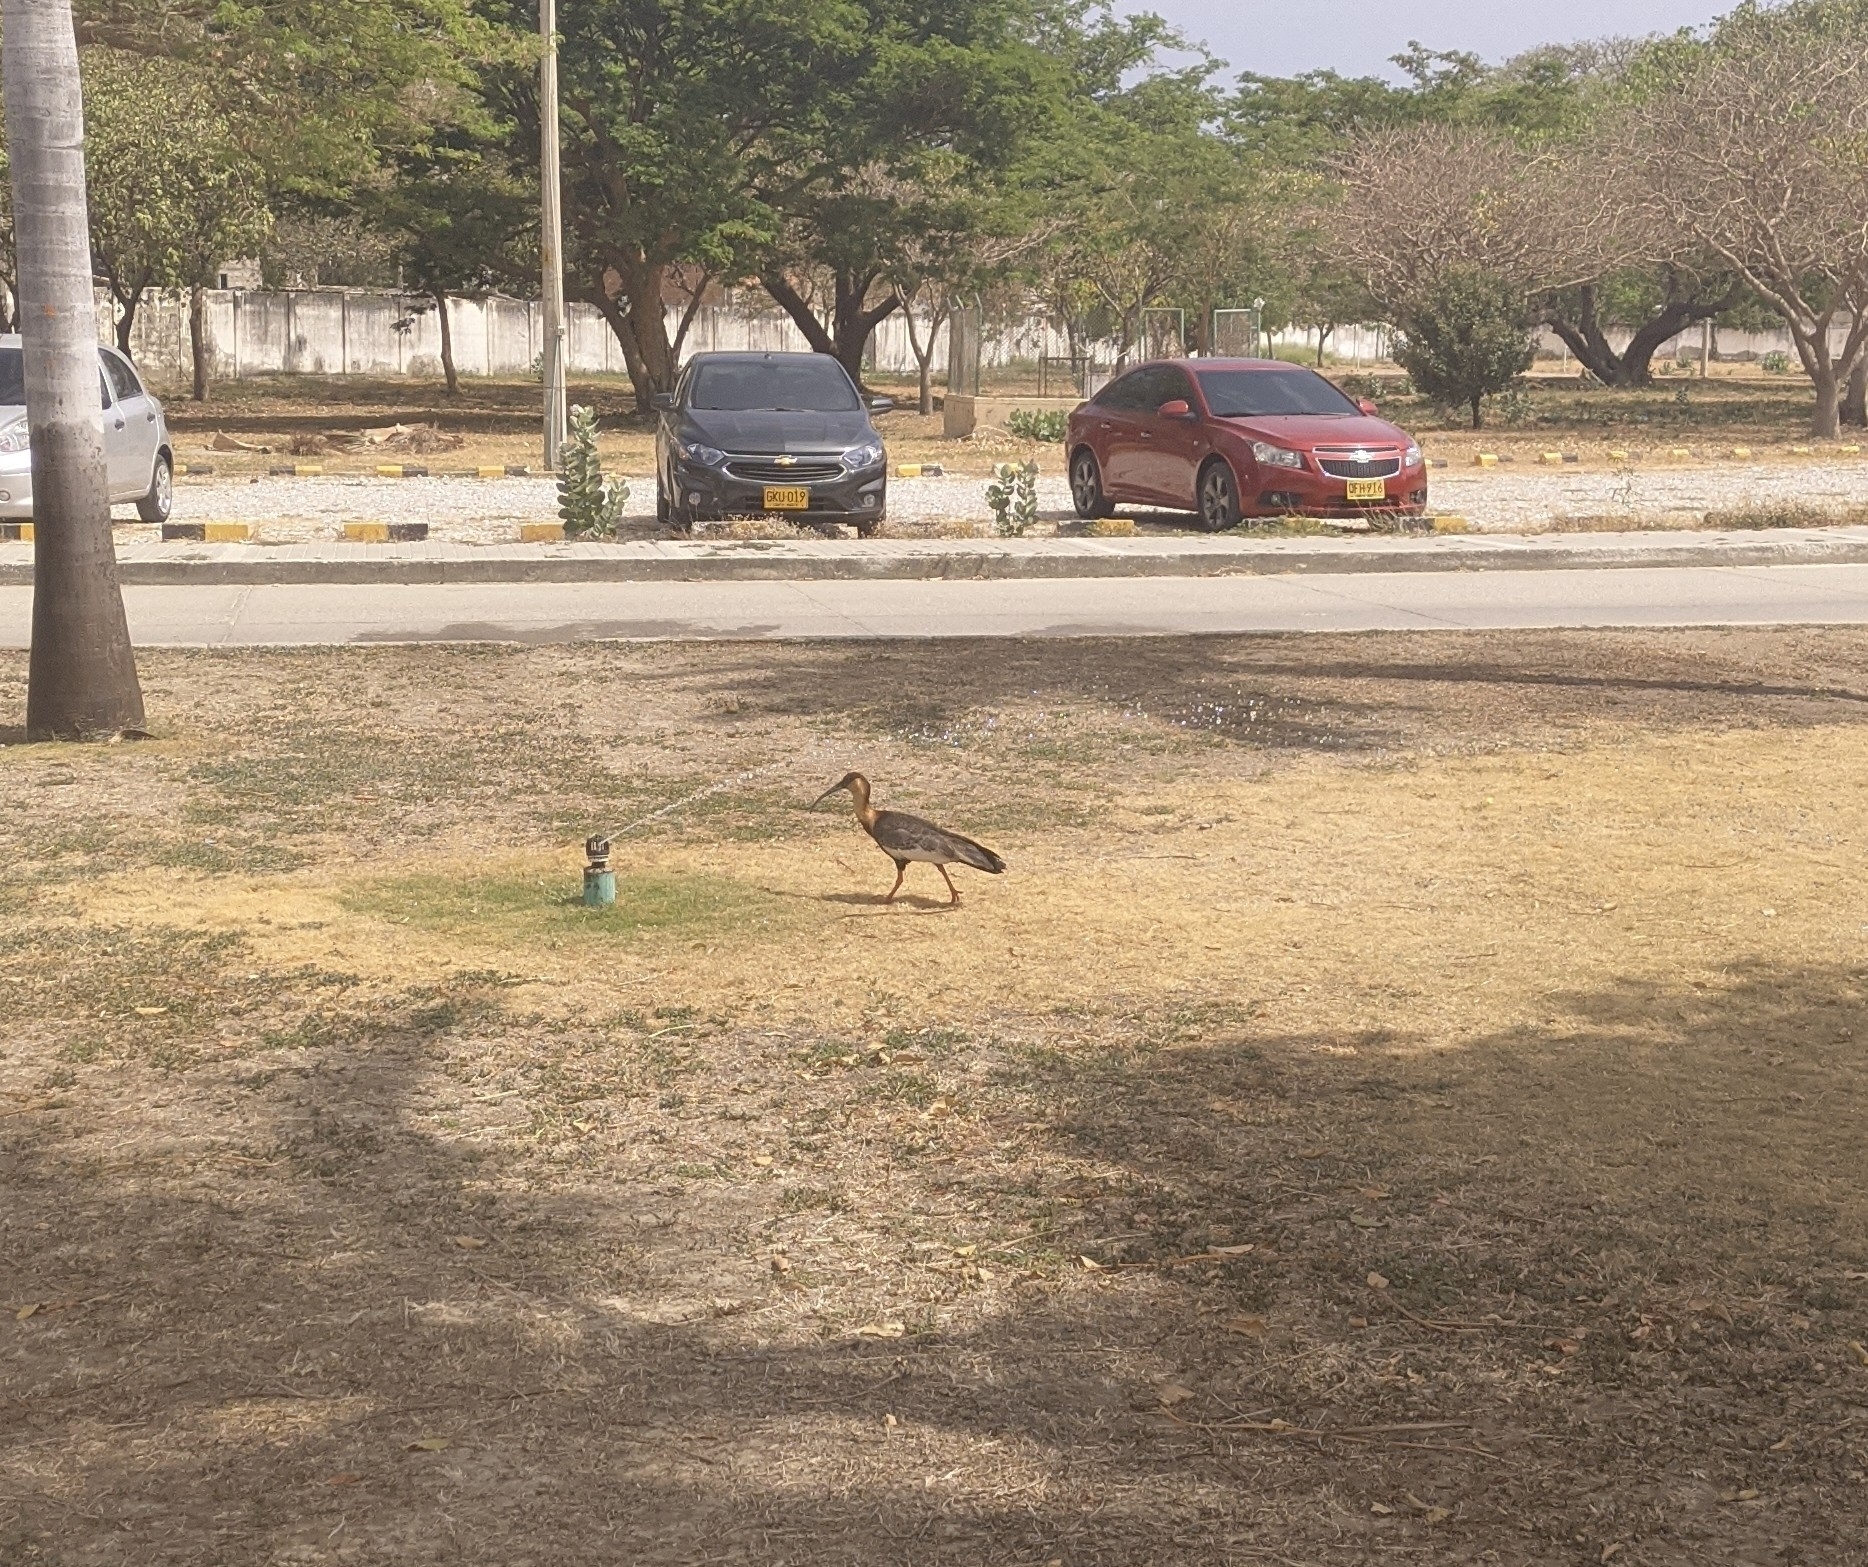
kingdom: Animalia
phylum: Chordata
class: Aves
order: Pelecaniformes
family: Threskiornithidae
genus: Theristicus
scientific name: Theristicus caudatus
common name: Buff-necked ibis
